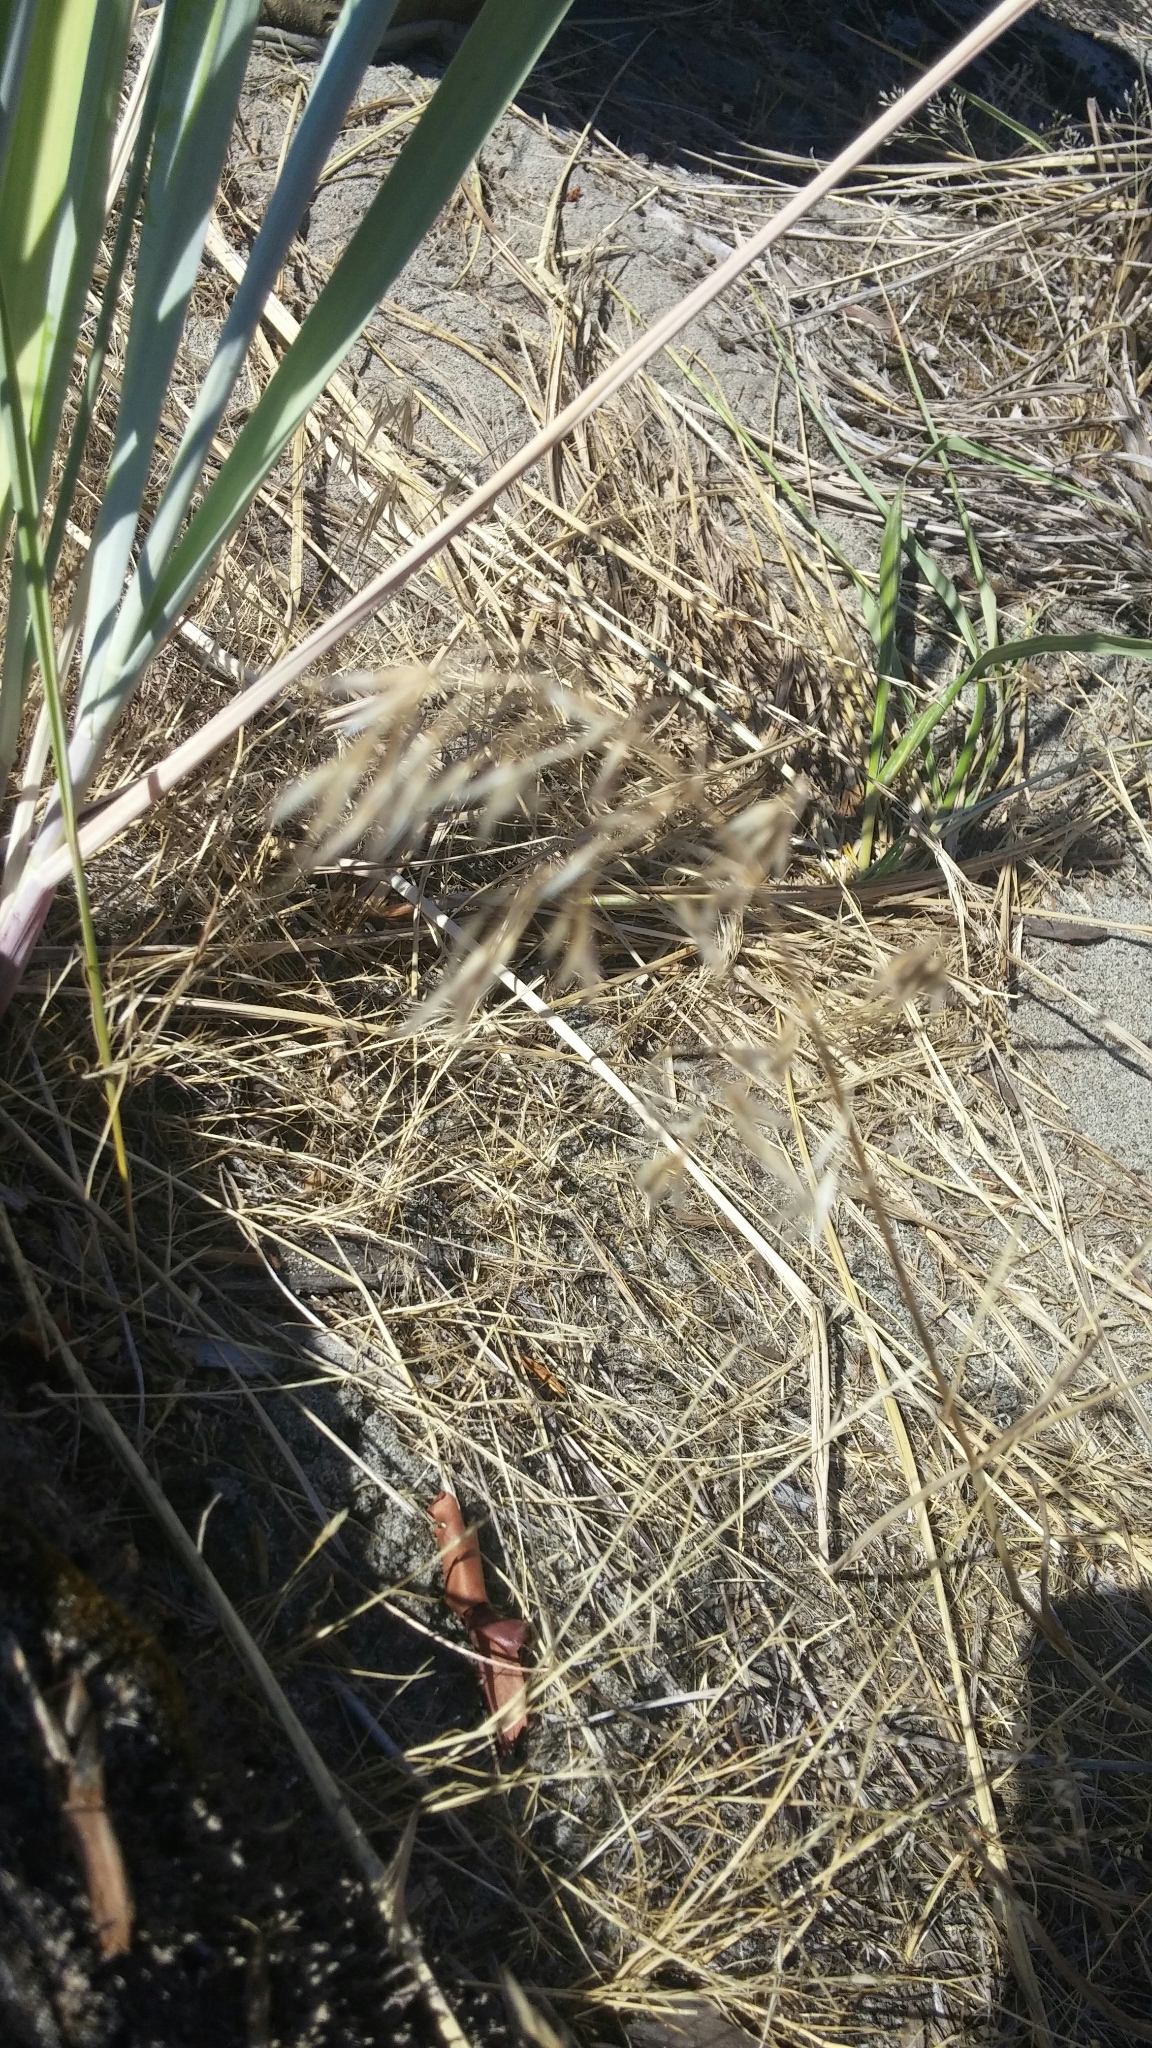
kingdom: Plantae
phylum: Tracheophyta
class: Liliopsida
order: Poales
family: Poaceae
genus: Bromus
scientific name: Bromus tectorum
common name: Cheatgrass
